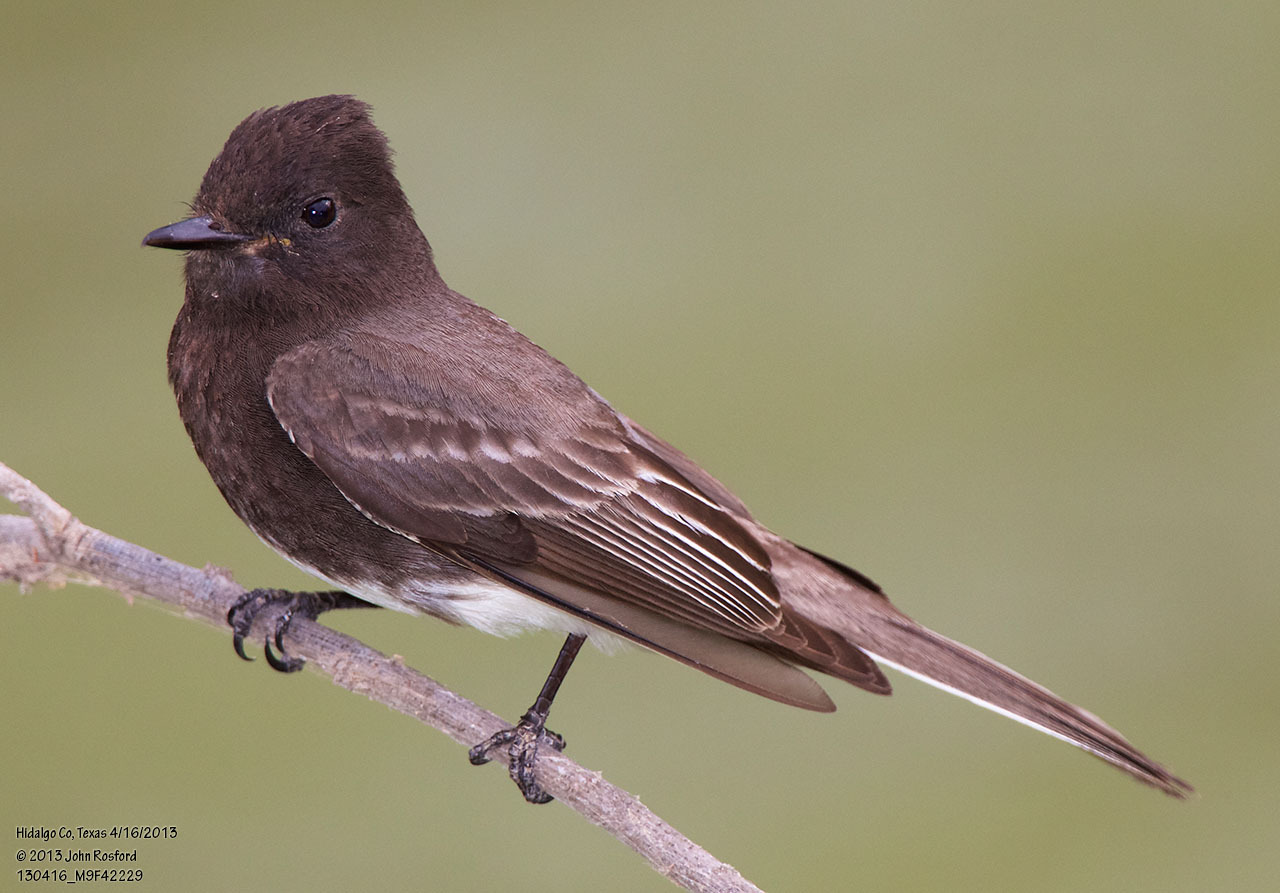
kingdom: Animalia
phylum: Chordata
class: Aves
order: Passeriformes
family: Tyrannidae
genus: Sayornis
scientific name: Sayornis nigricans
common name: Black phoebe
